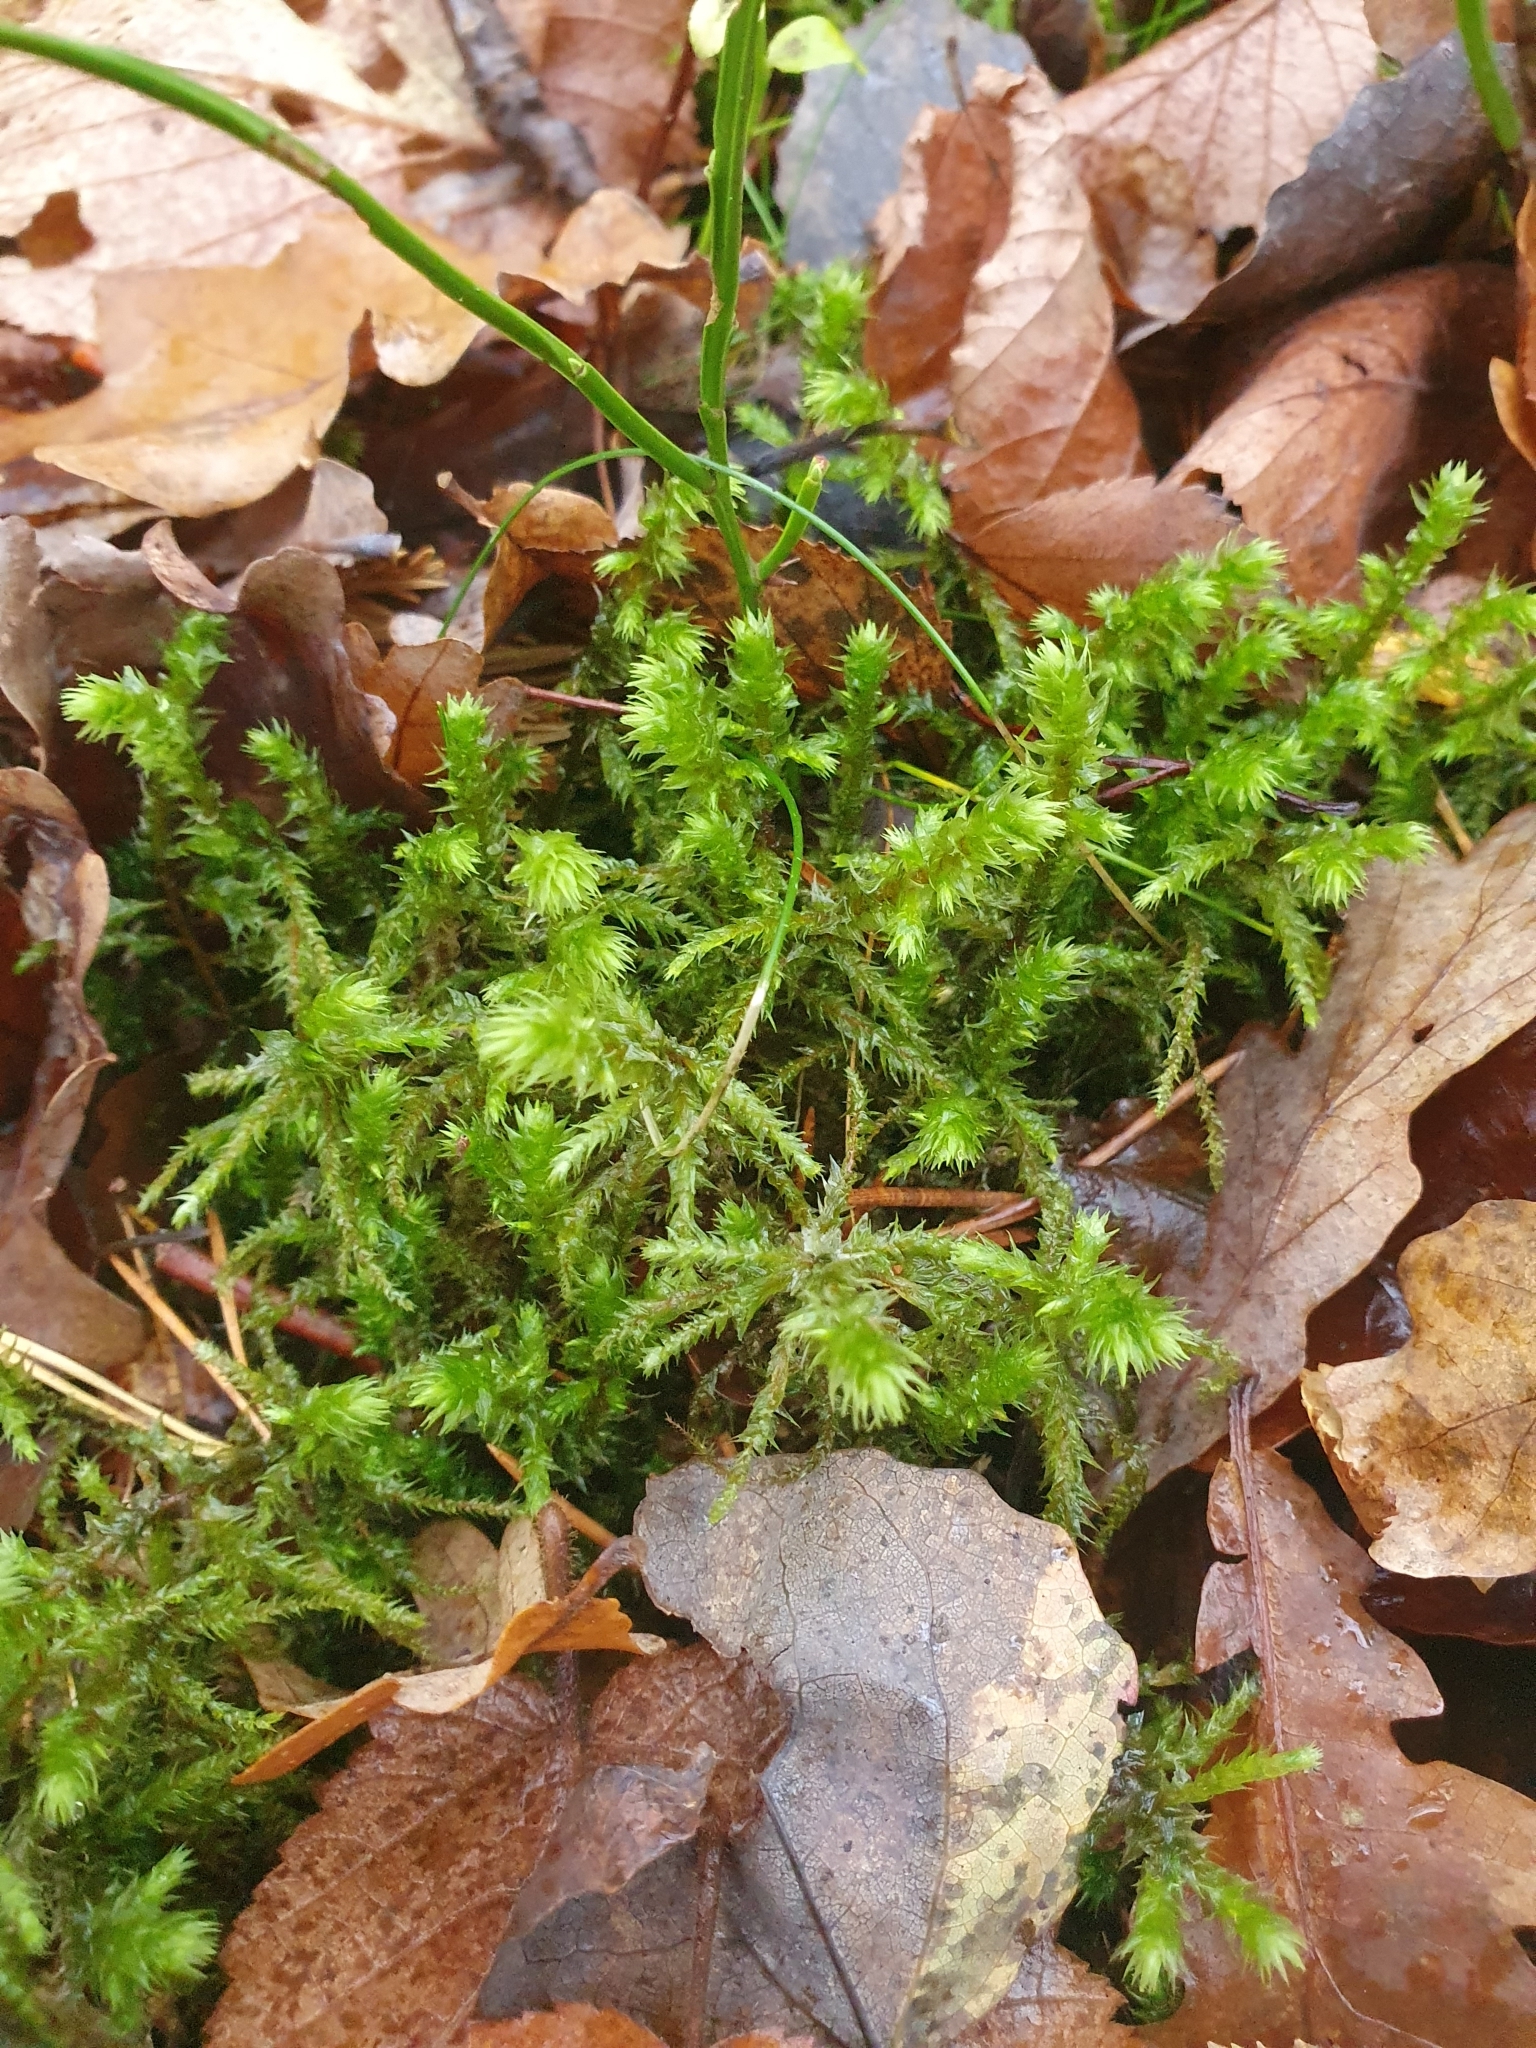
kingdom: Plantae
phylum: Bryophyta
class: Bryopsida
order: Hypnales
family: Hylocomiaceae
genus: Hylocomiadelphus
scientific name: Hylocomiadelphus triquetrus
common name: Rough goose neck moss
